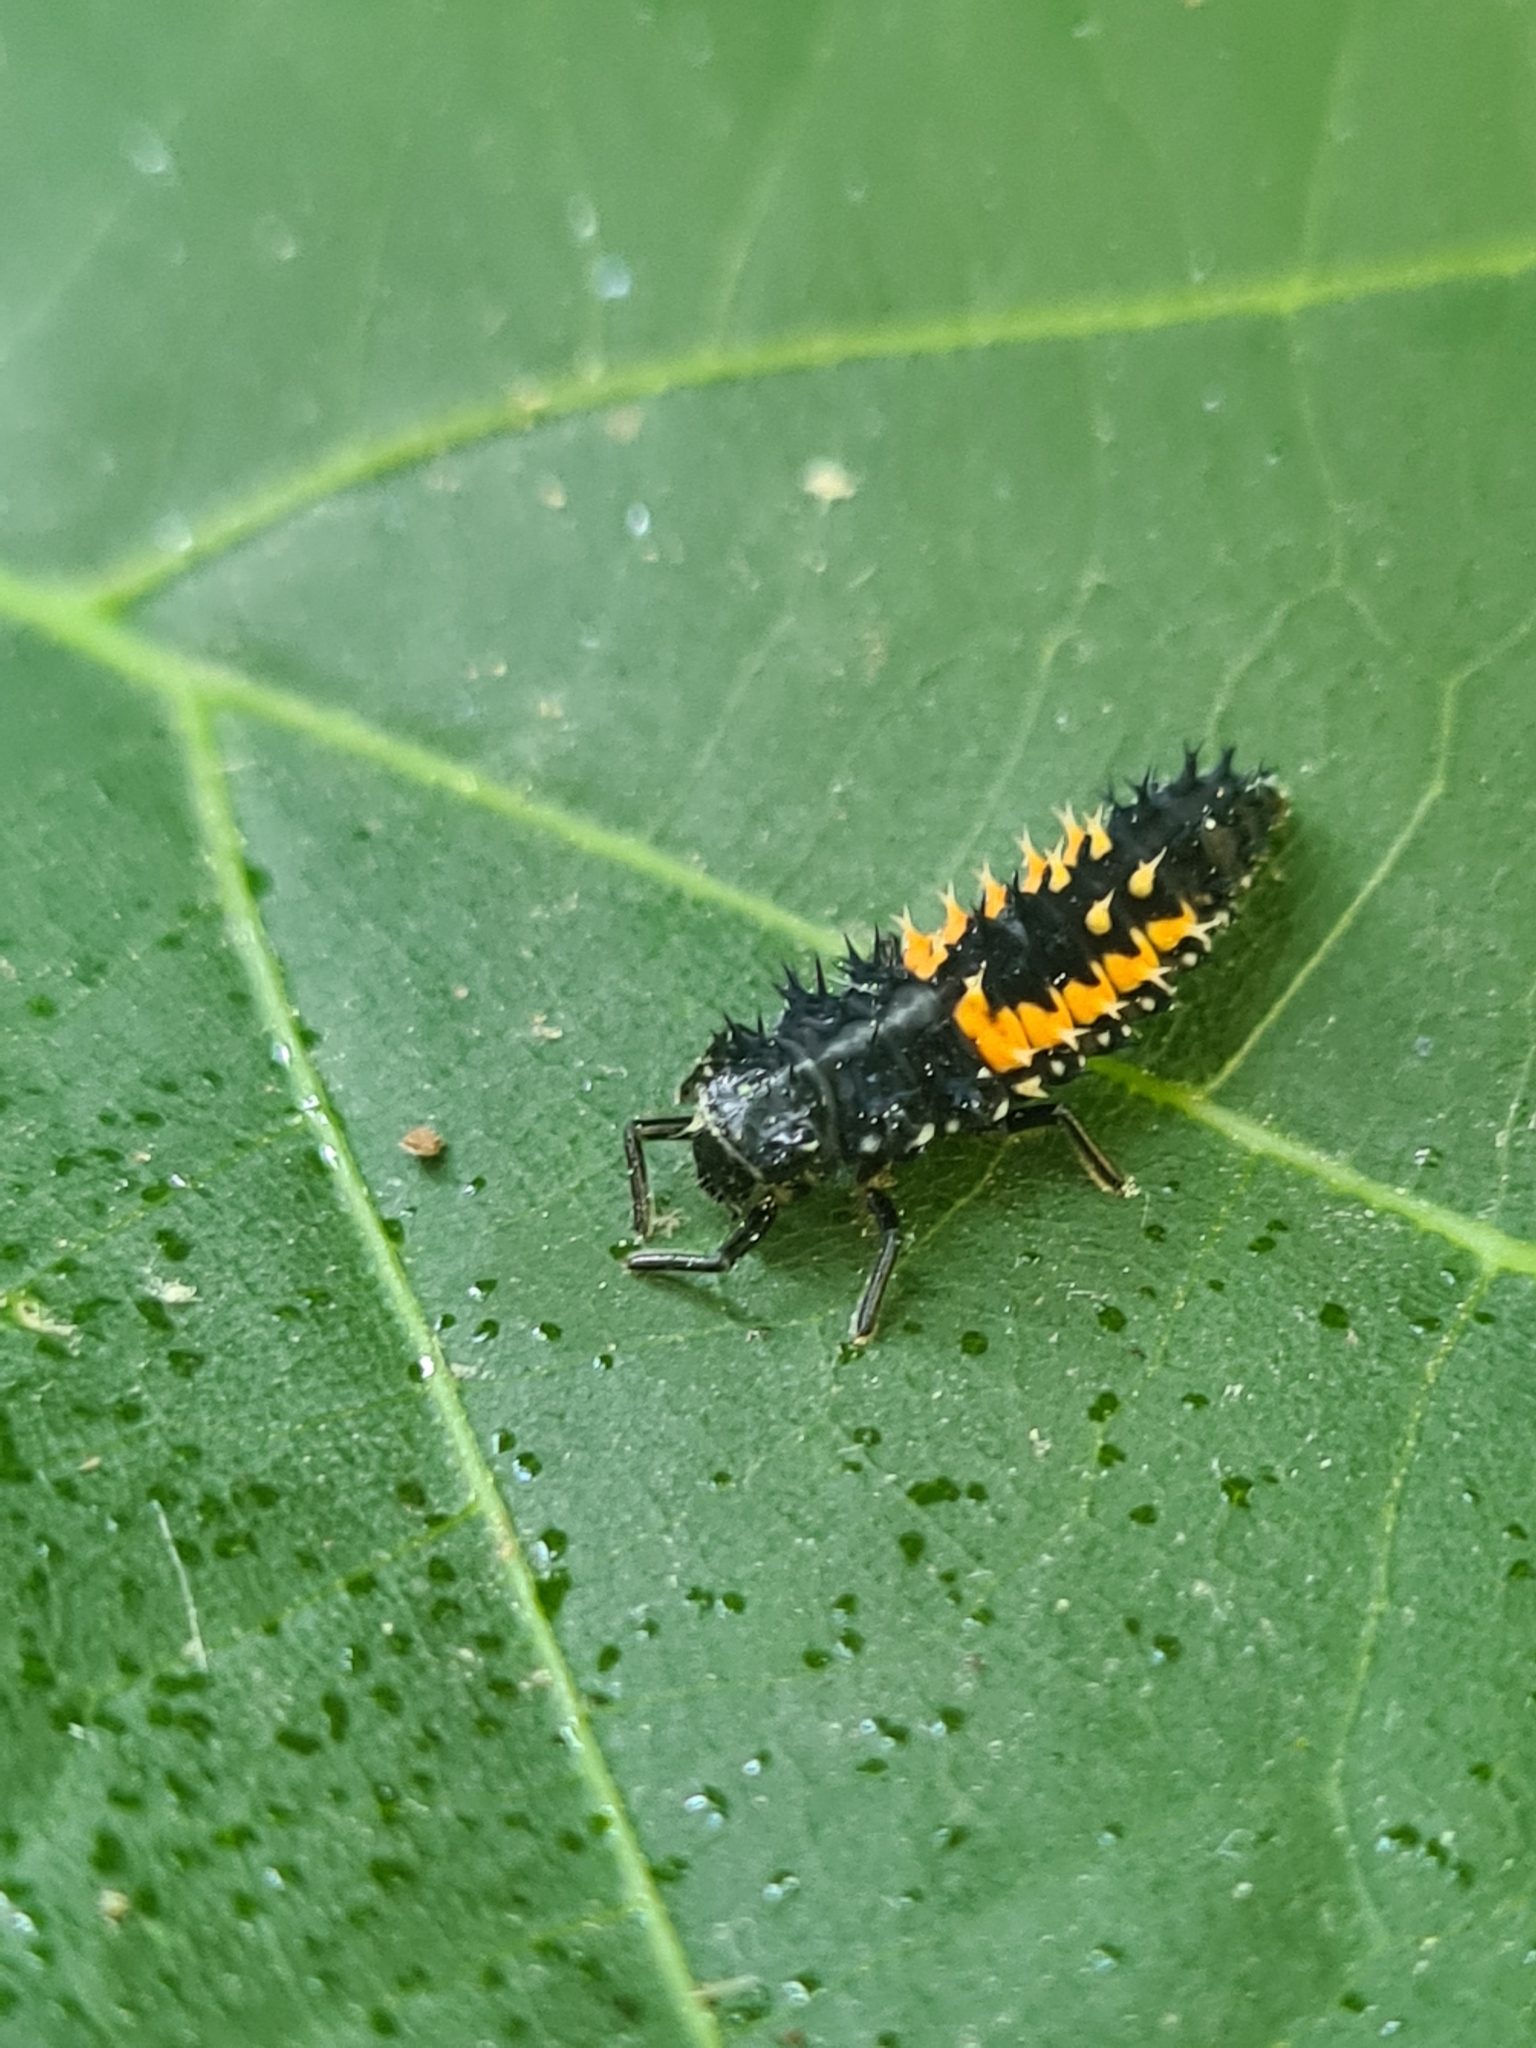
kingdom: Animalia
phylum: Arthropoda
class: Insecta
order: Coleoptera
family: Coccinellidae
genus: Harmonia
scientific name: Harmonia axyridis
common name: Harlequin ladybird
